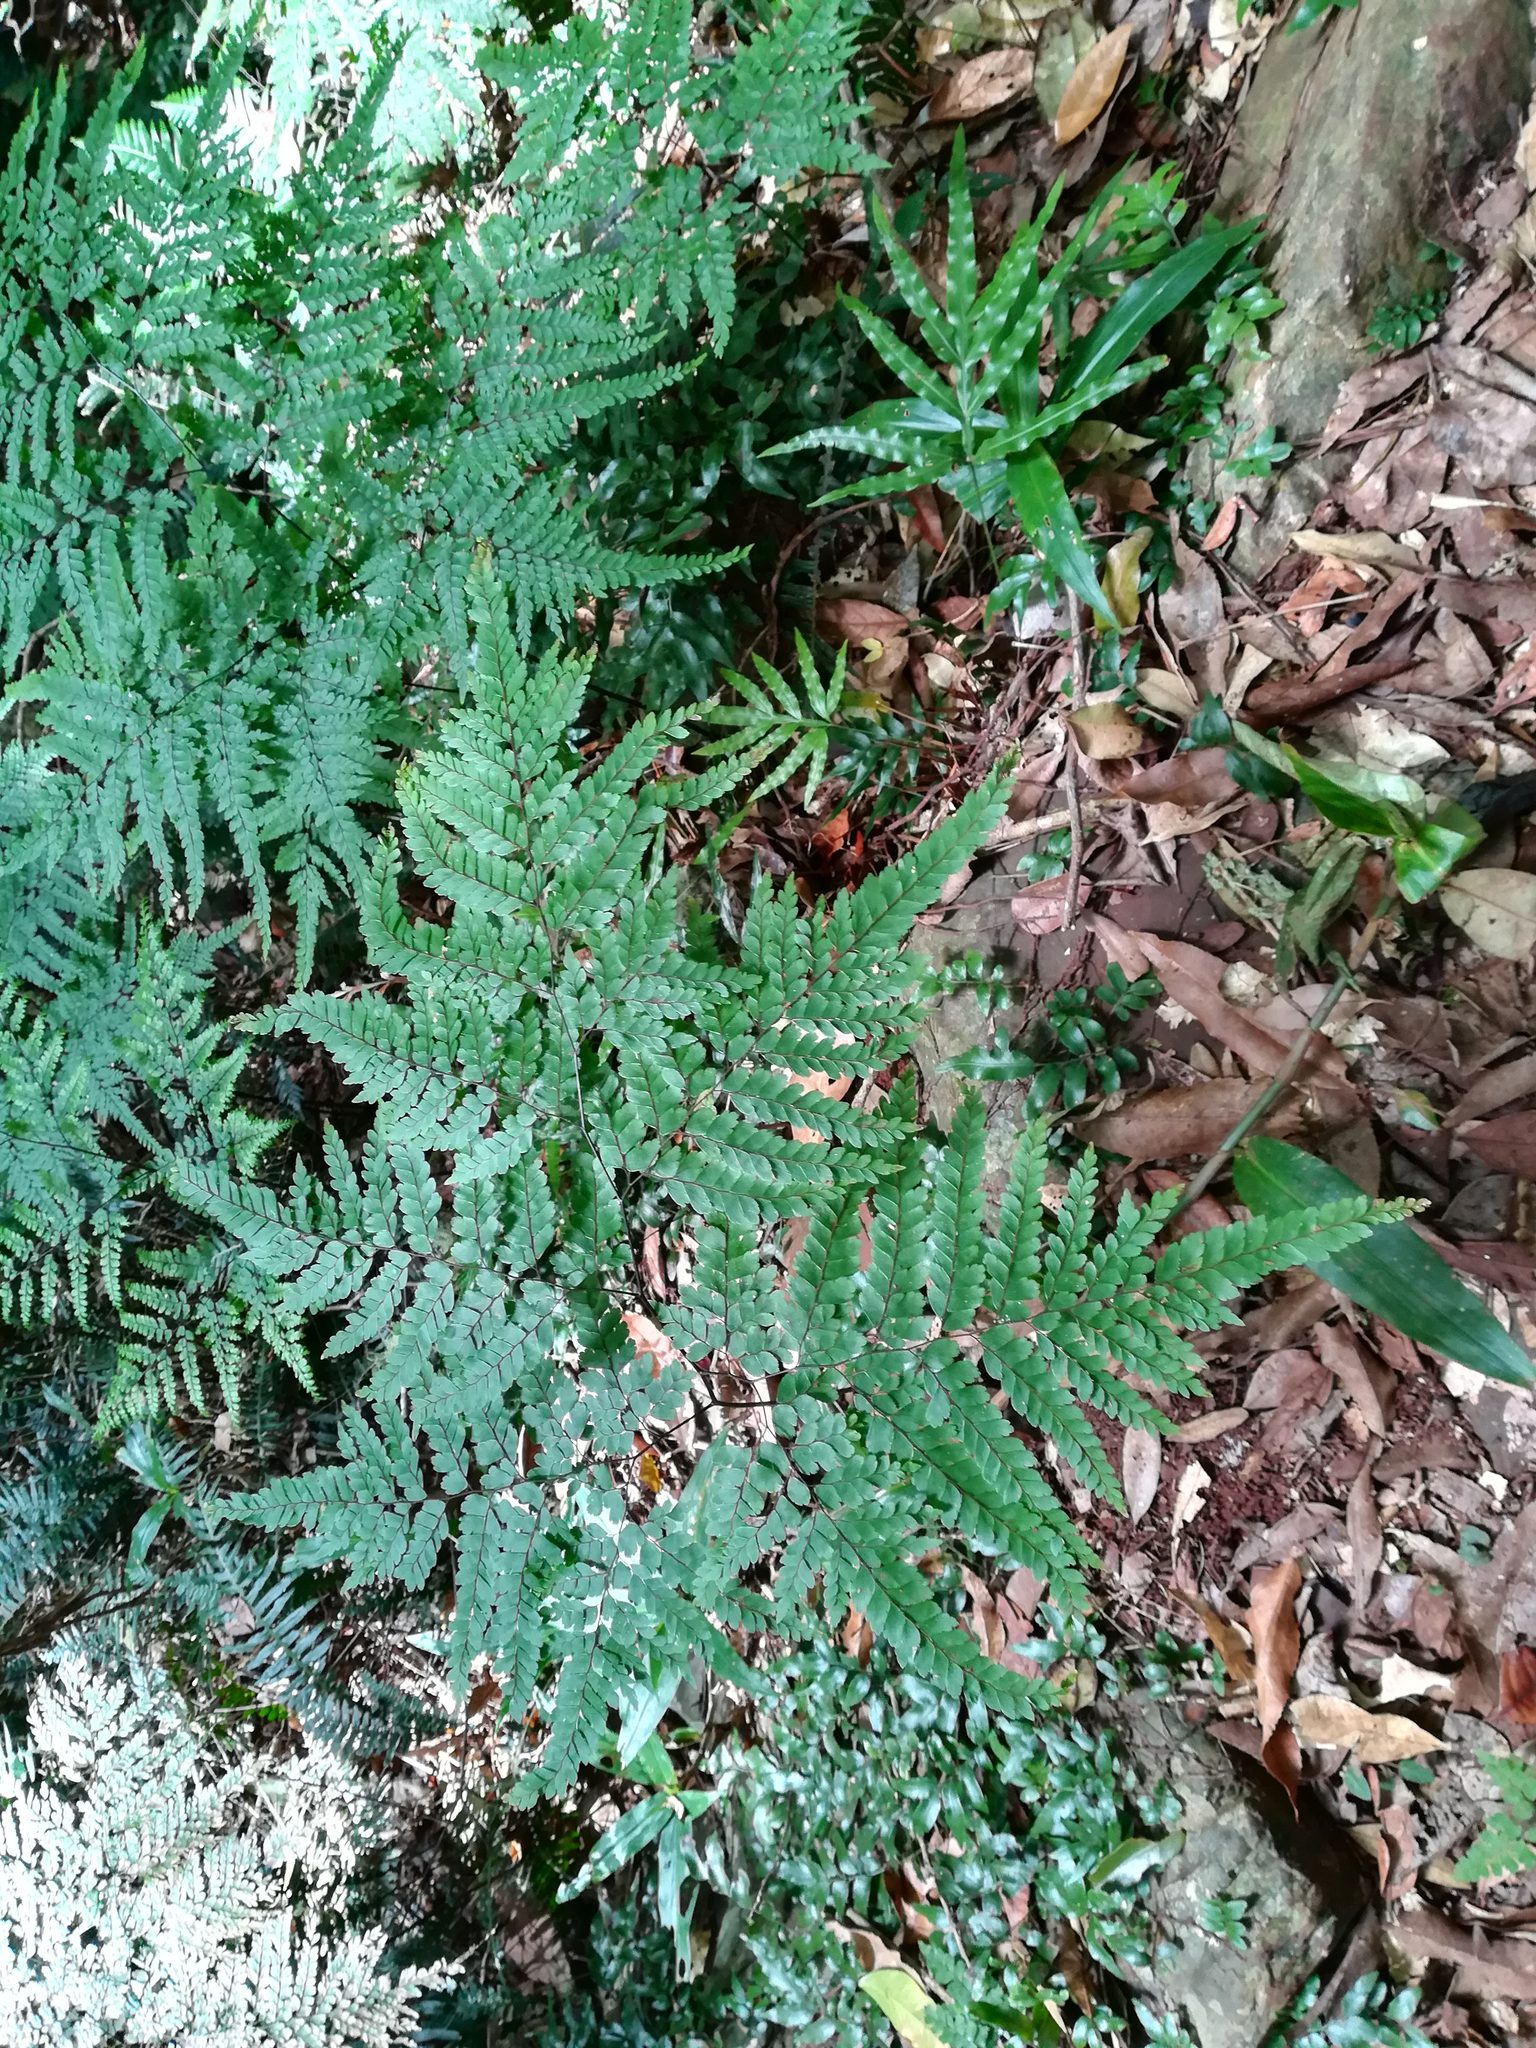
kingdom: Plantae
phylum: Tracheophyta
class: Polypodiopsida
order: Polypodiales
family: Pteridaceae
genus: Adiantum
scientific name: Adiantum formosum
